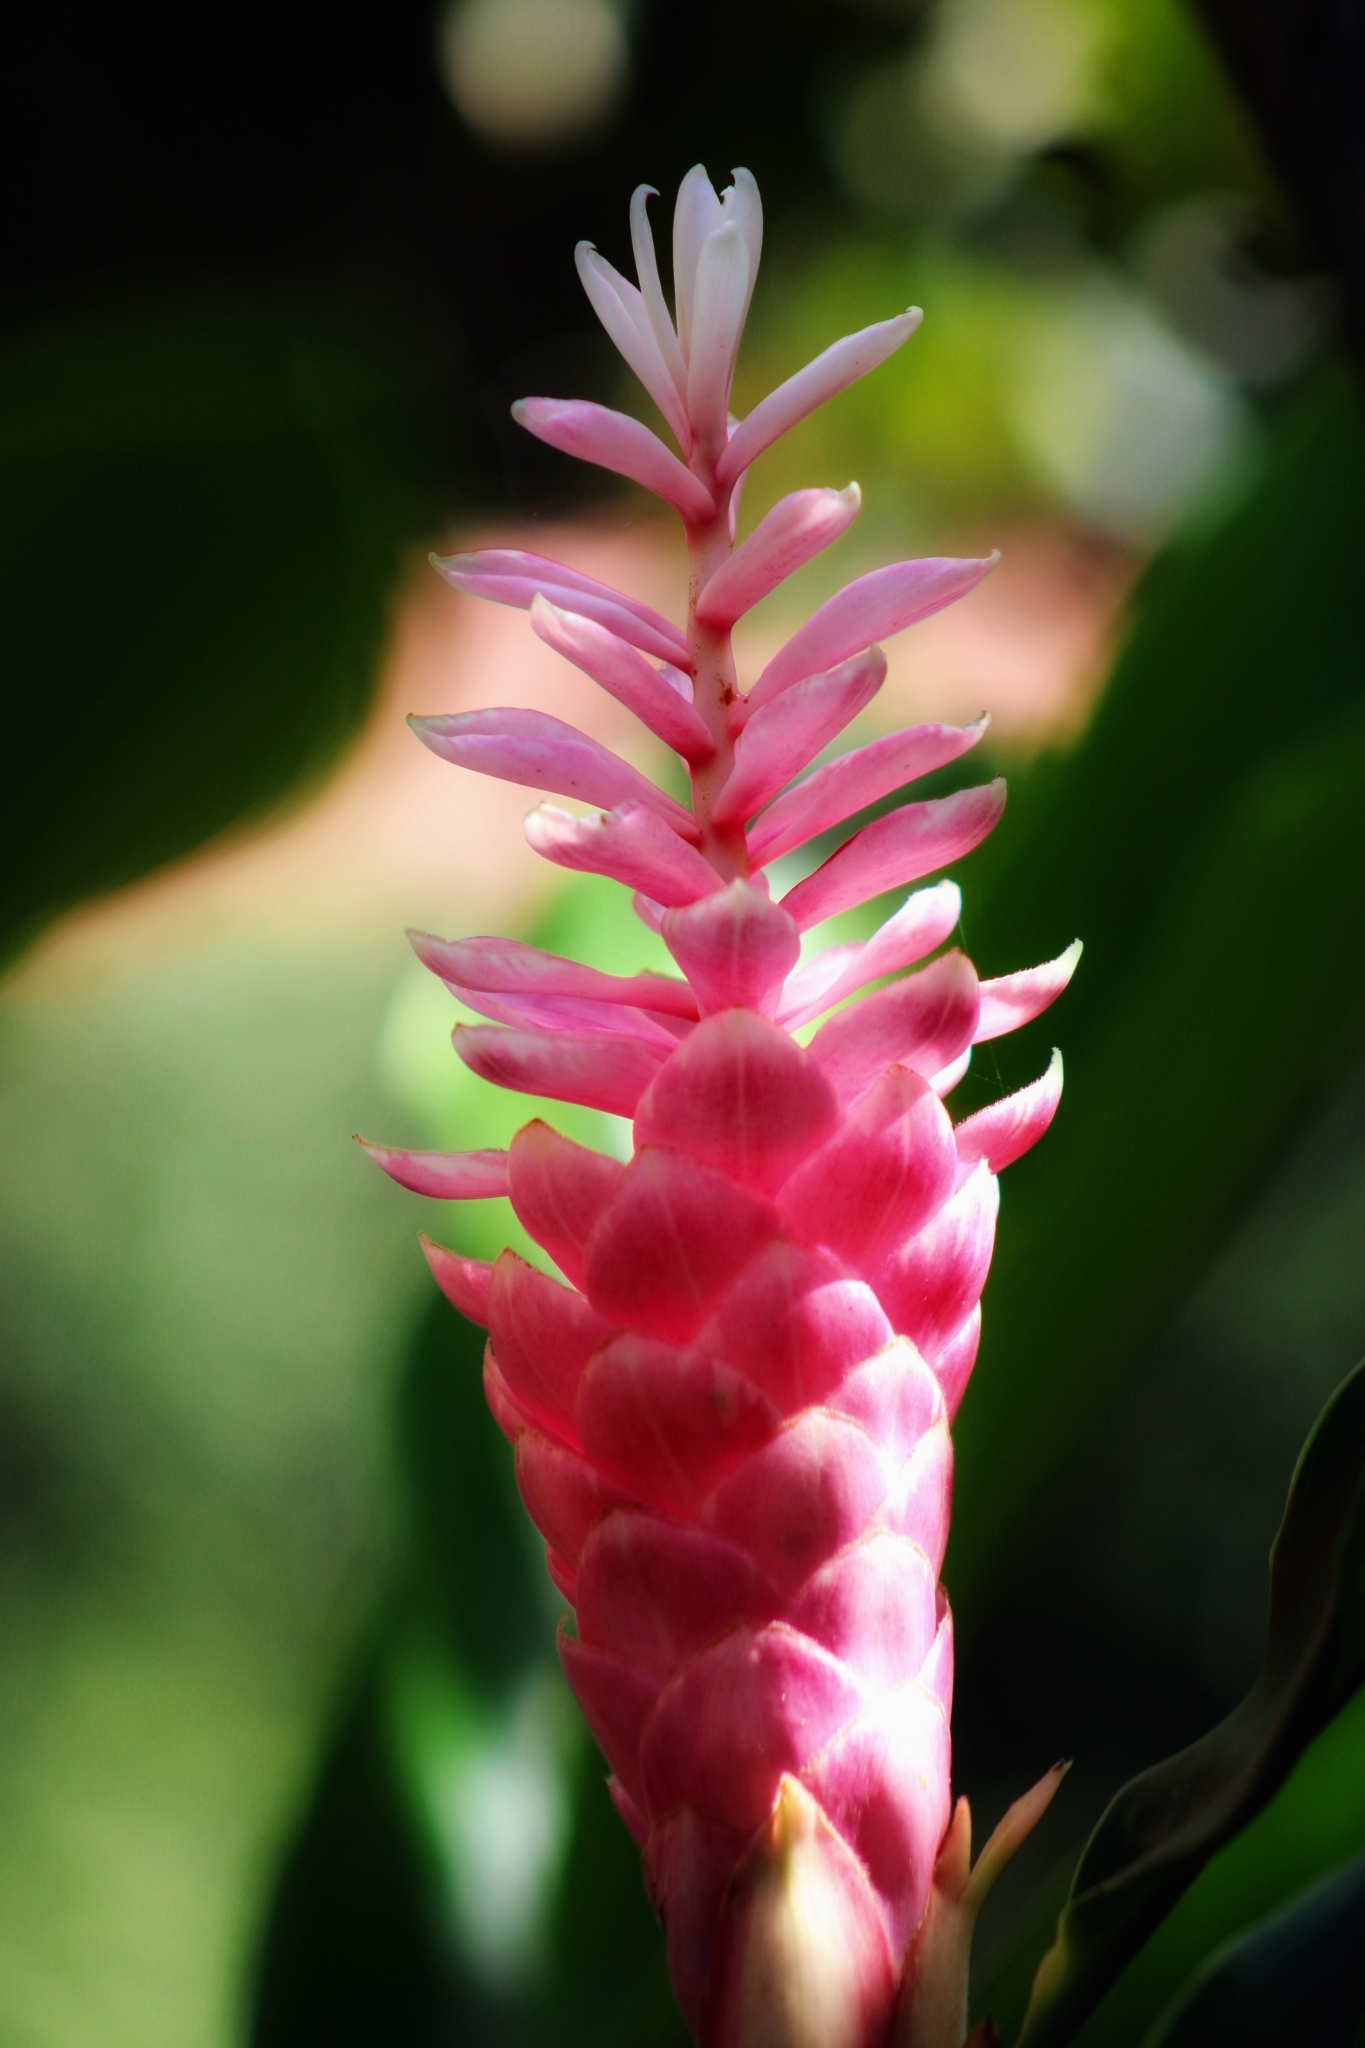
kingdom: Plantae
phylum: Tracheophyta
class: Liliopsida
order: Zingiberales
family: Zingiberaceae
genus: Alpinia
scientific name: Alpinia purpurata
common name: Red ginger
